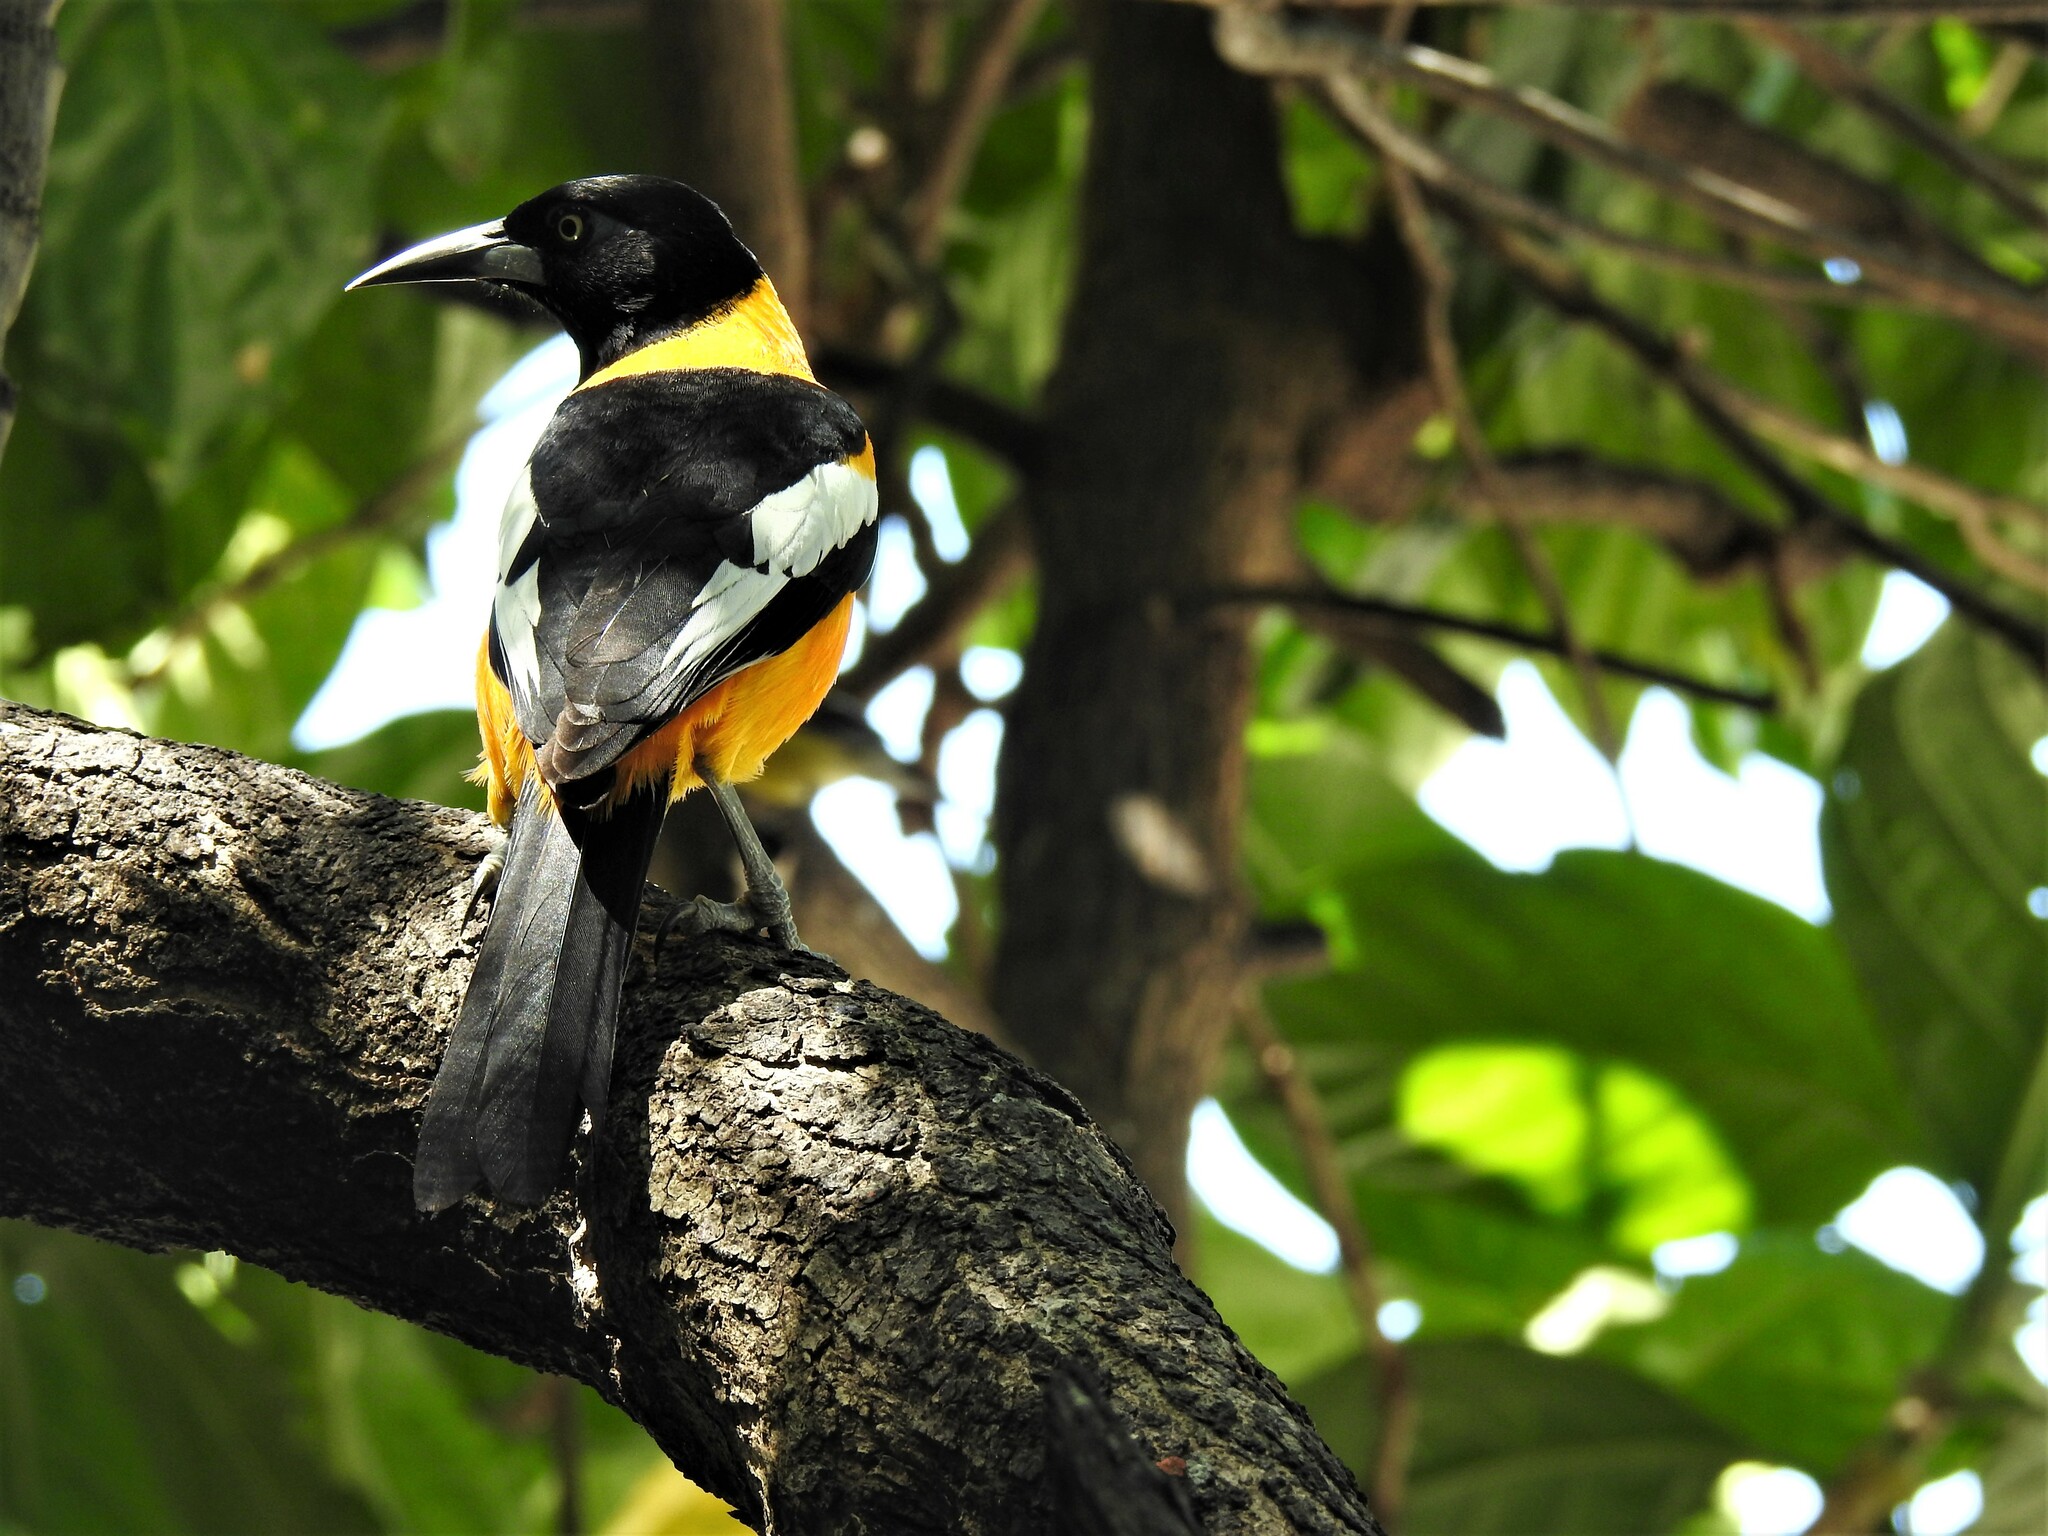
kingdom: Animalia
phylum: Chordata
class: Aves
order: Passeriformes
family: Icteridae
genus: Icterus
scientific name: Icterus icterus
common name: Venezuelan troupial
